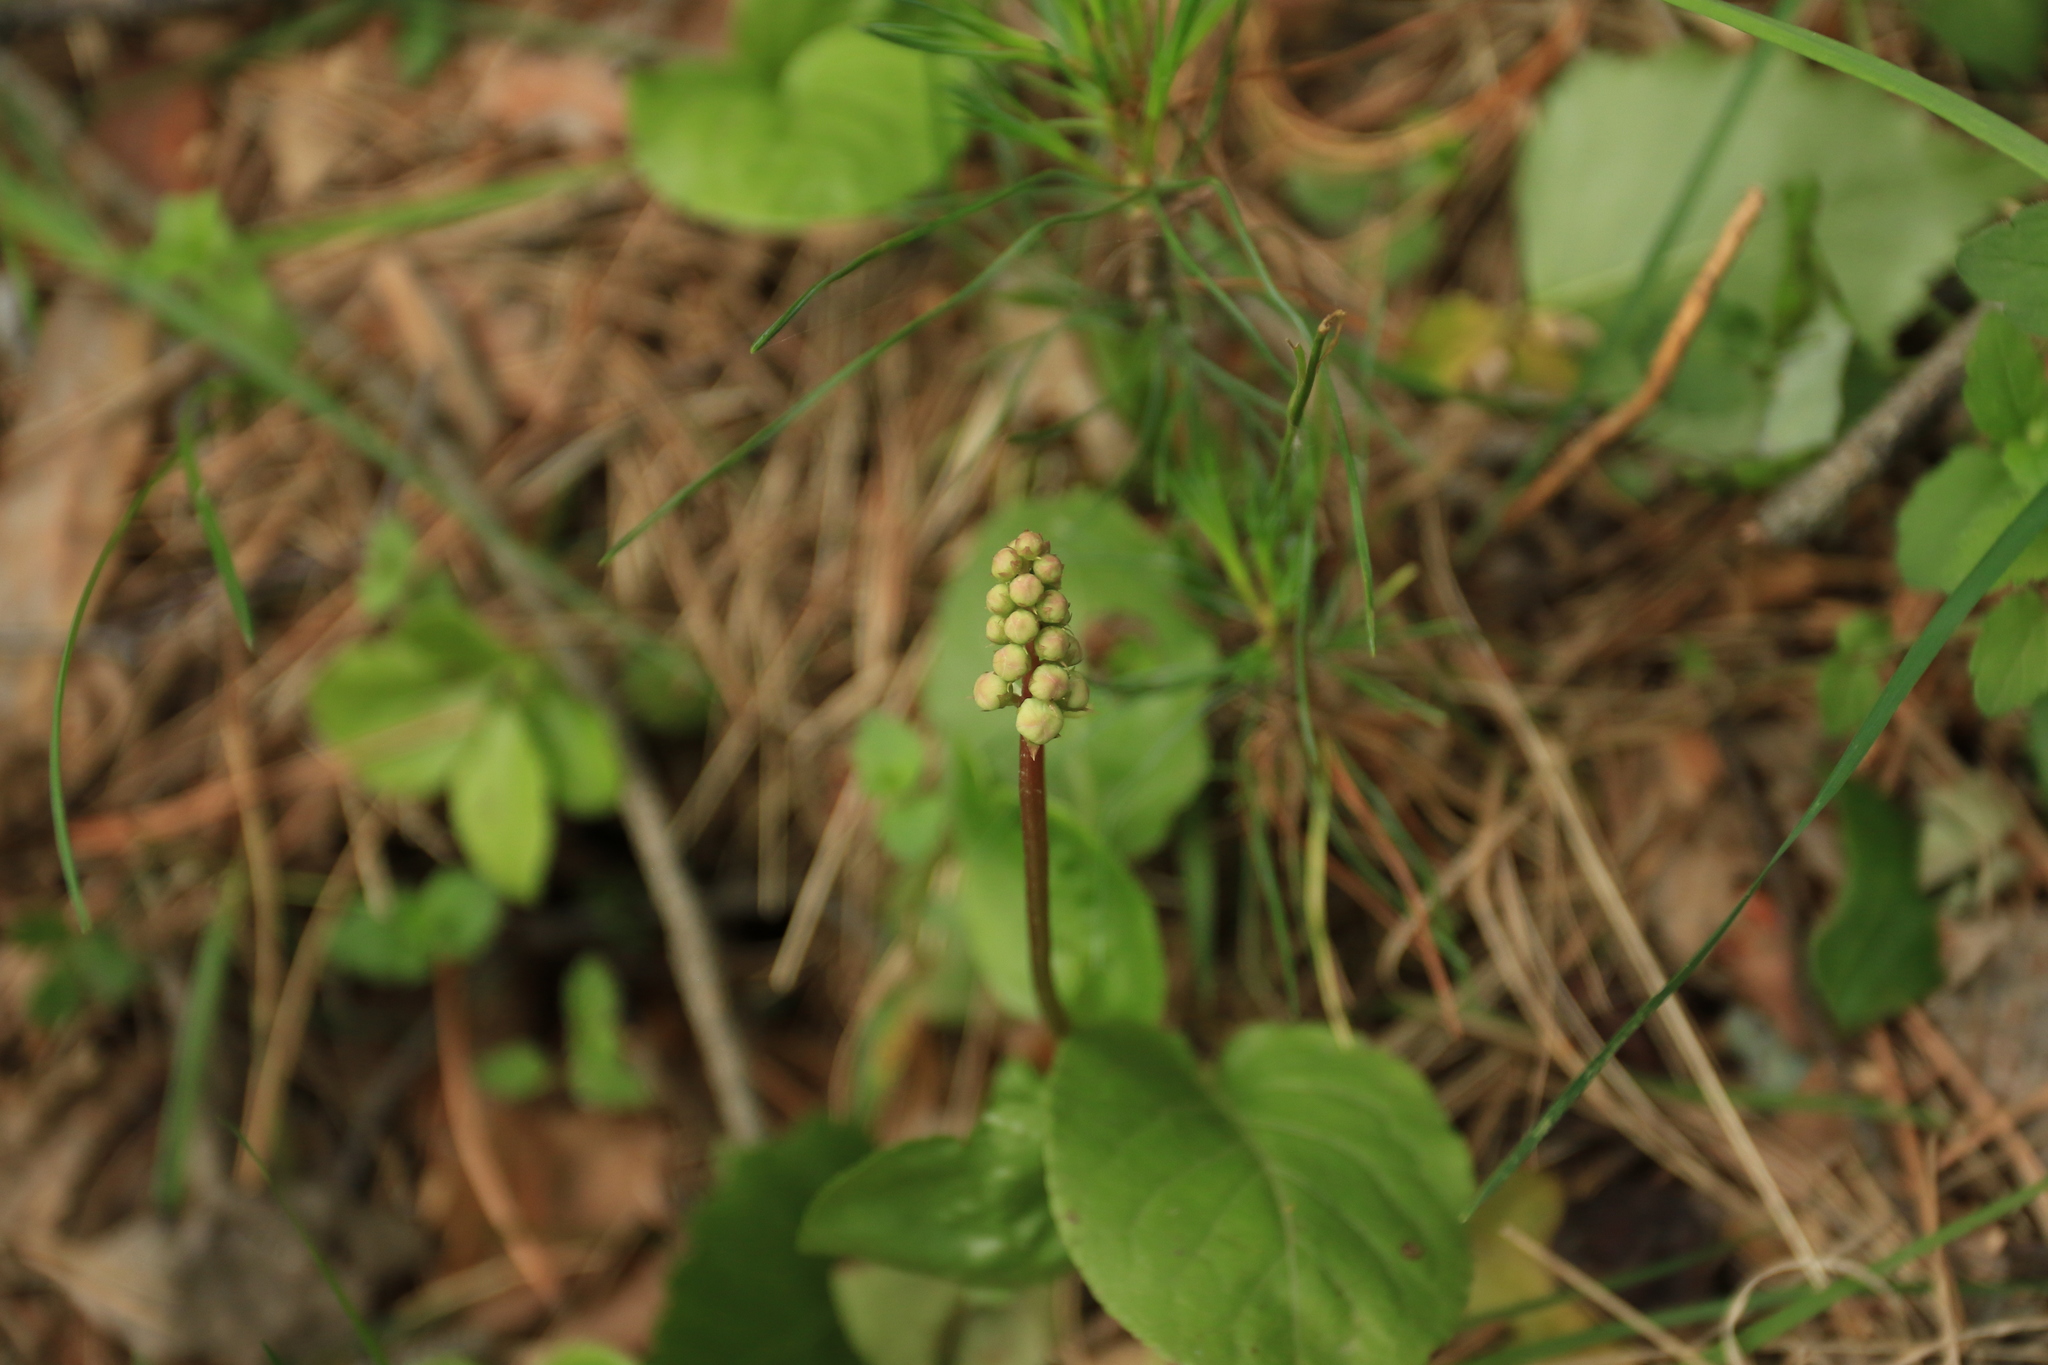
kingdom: Plantae
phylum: Tracheophyta
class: Magnoliopsida
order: Ericales
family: Ericaceae
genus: Pyrola
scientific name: Pyrola minor
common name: Common wintergreen
